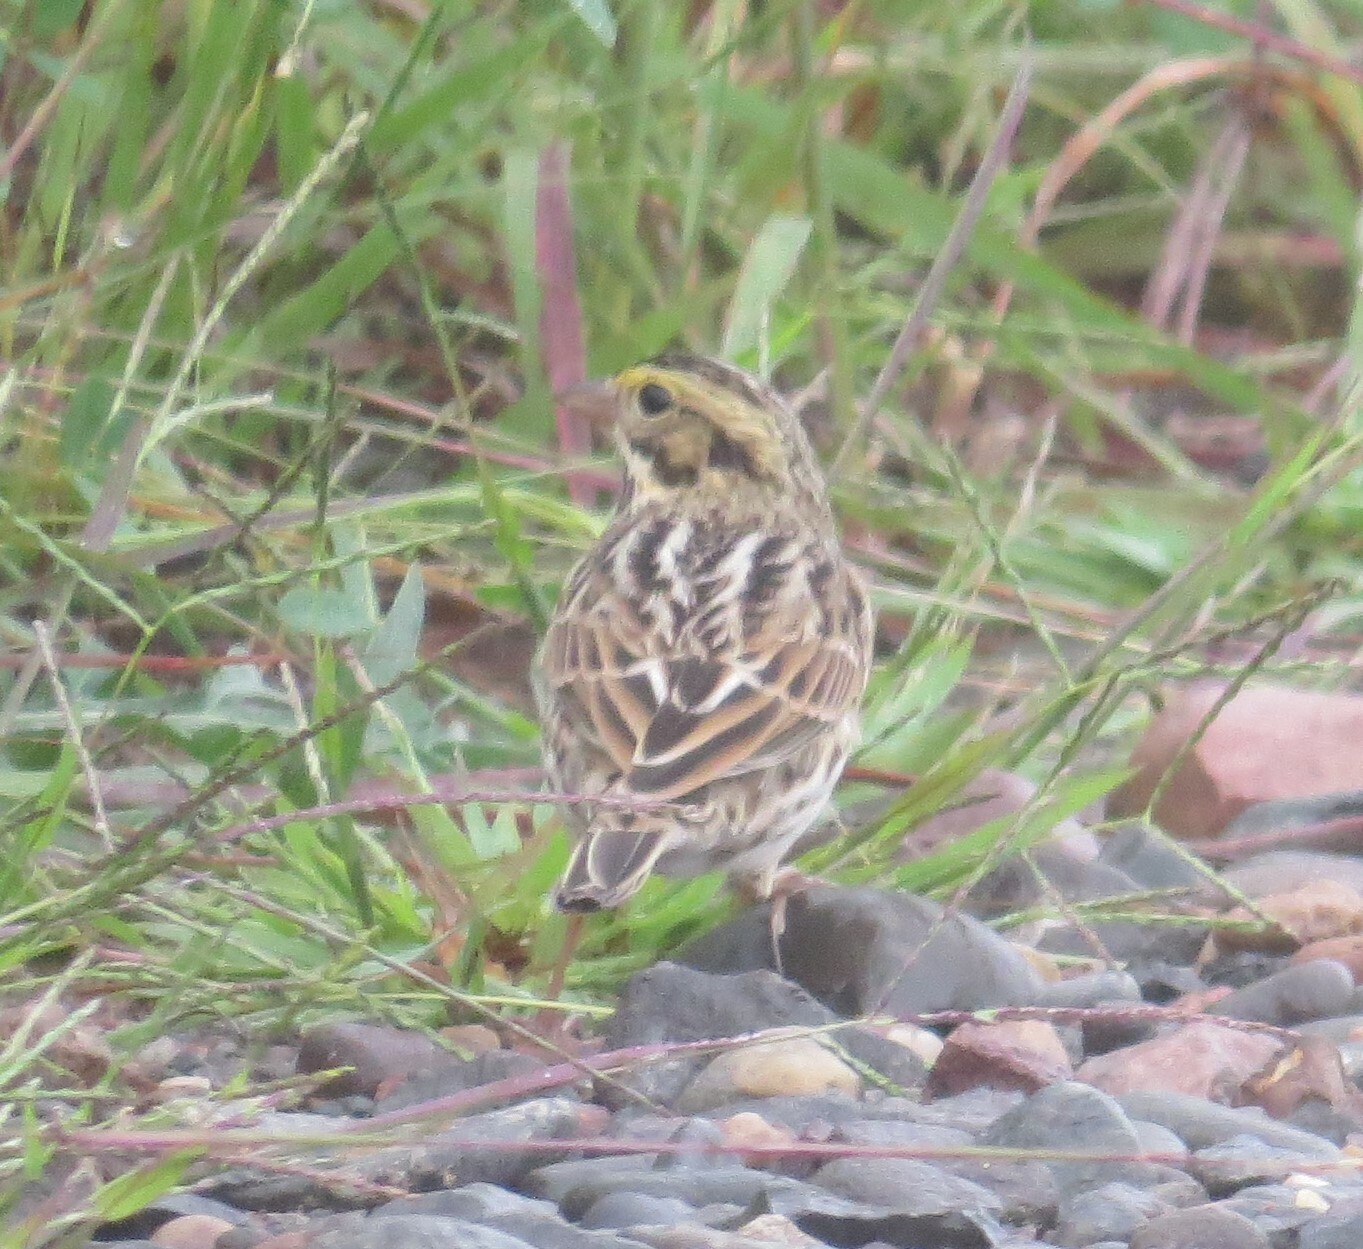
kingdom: Animalia
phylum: Chordata
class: Aves
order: Passeriformes
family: Passerellidae
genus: Passerculus
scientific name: Passerculus sandwichensis
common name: Savannah sparrow
